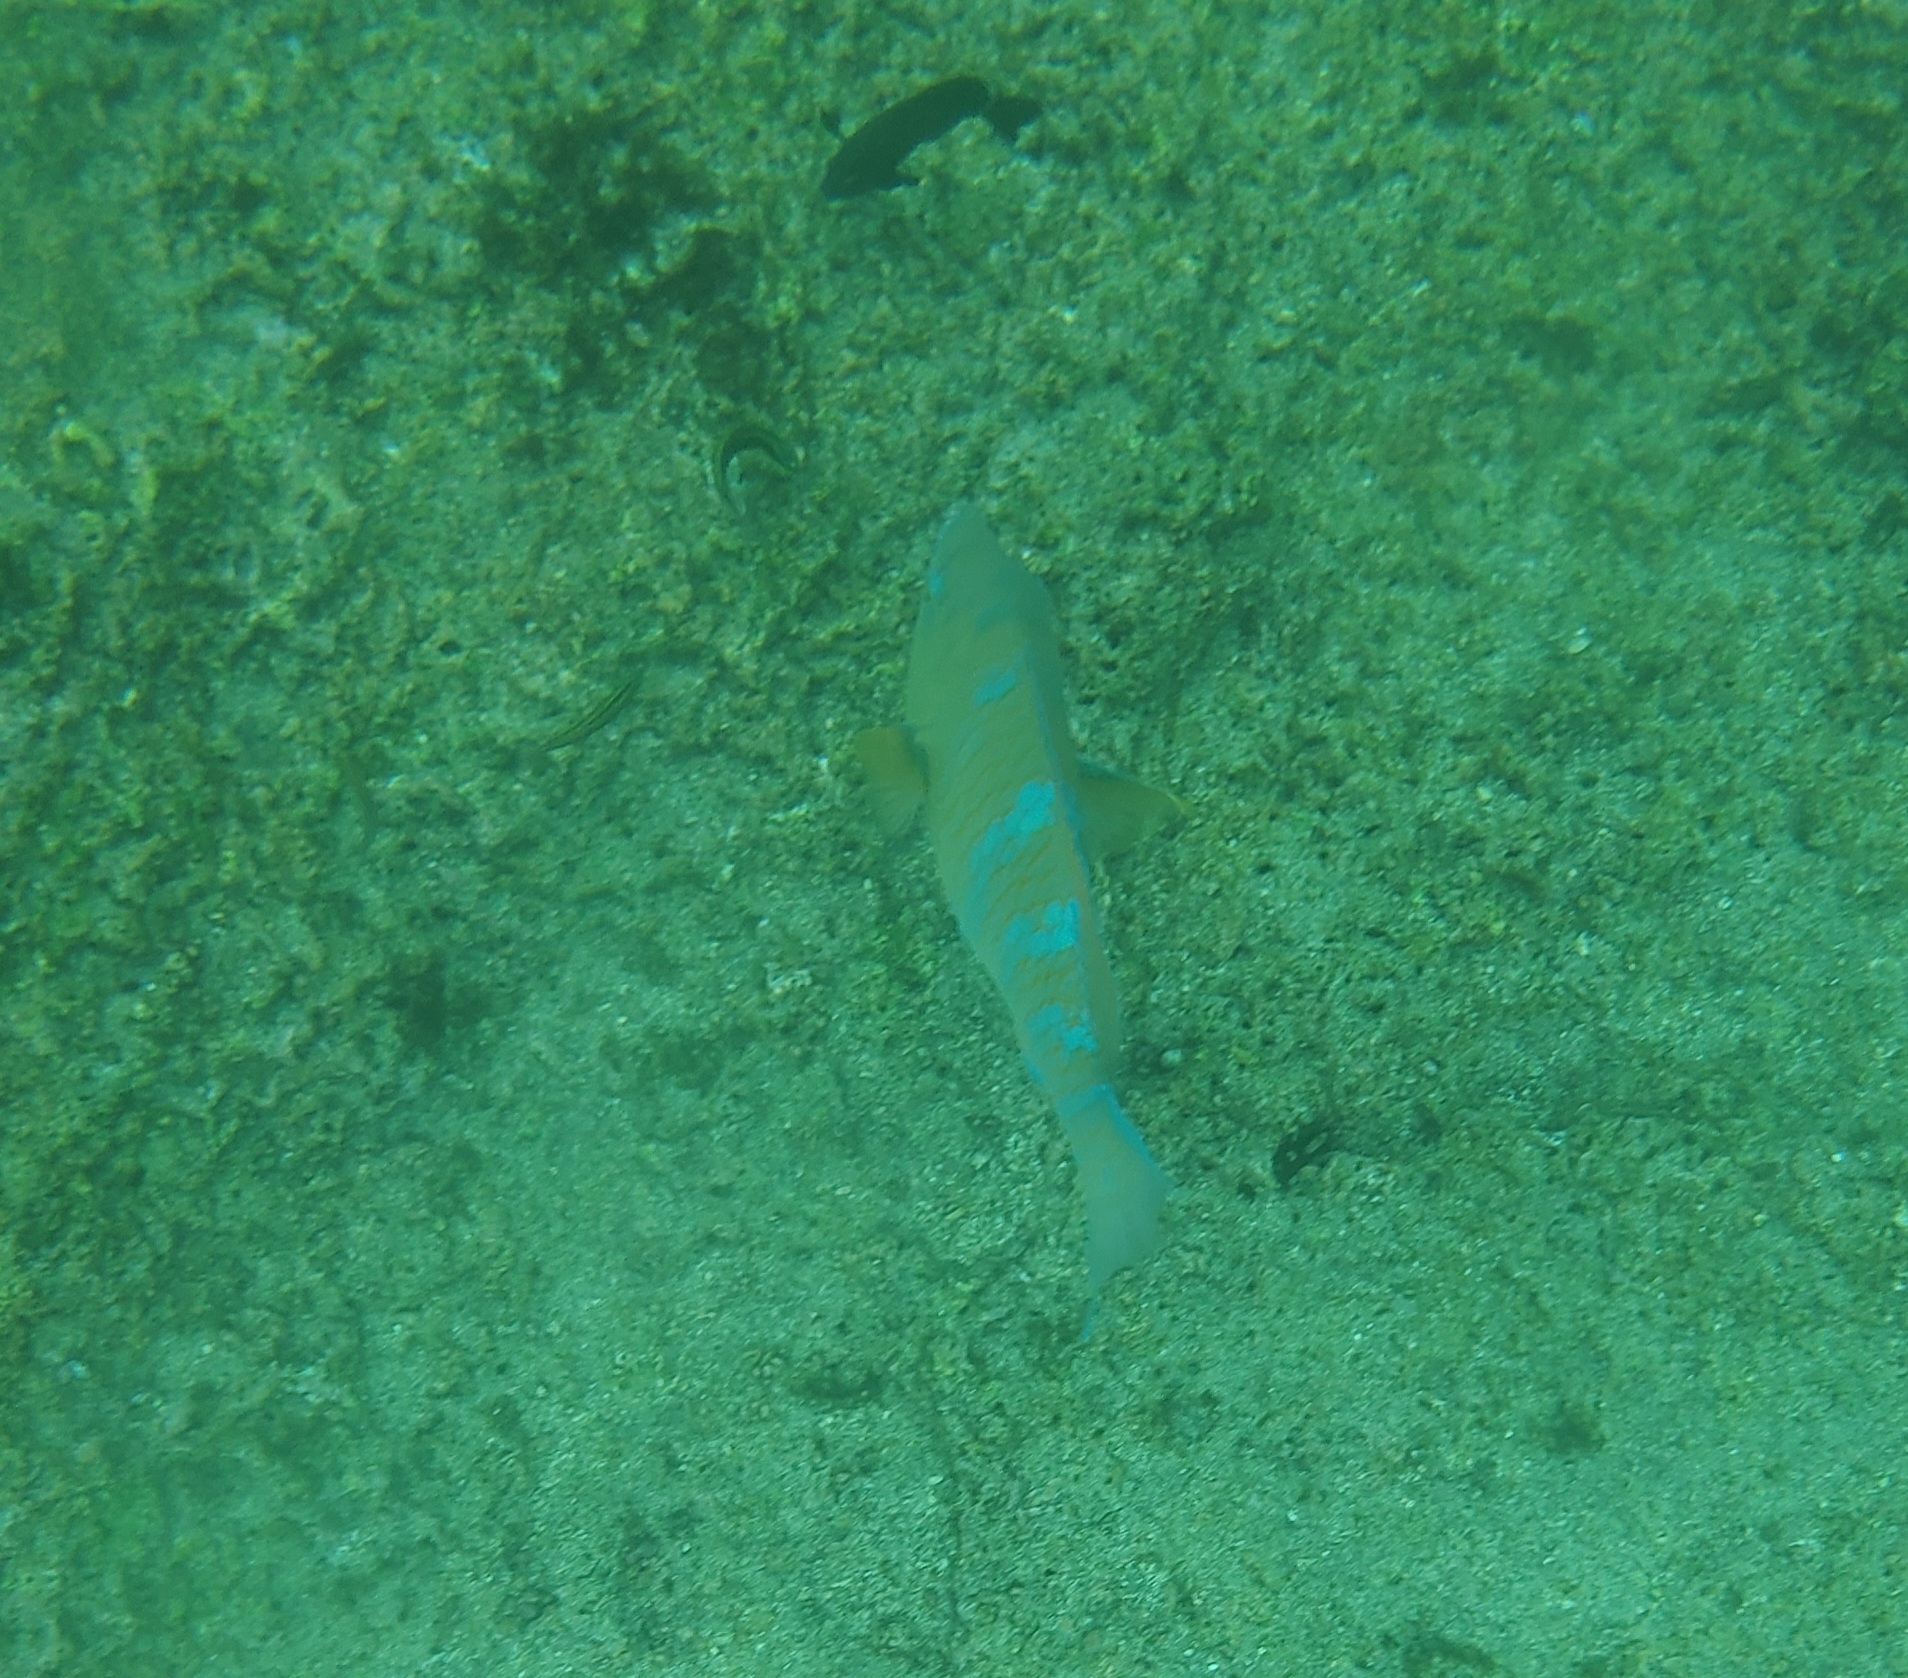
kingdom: Animalia
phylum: Chordata
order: Perciformes
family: Scaridae
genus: Scarus
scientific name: Scarus ghobban
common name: Blue-barred parrotfish
